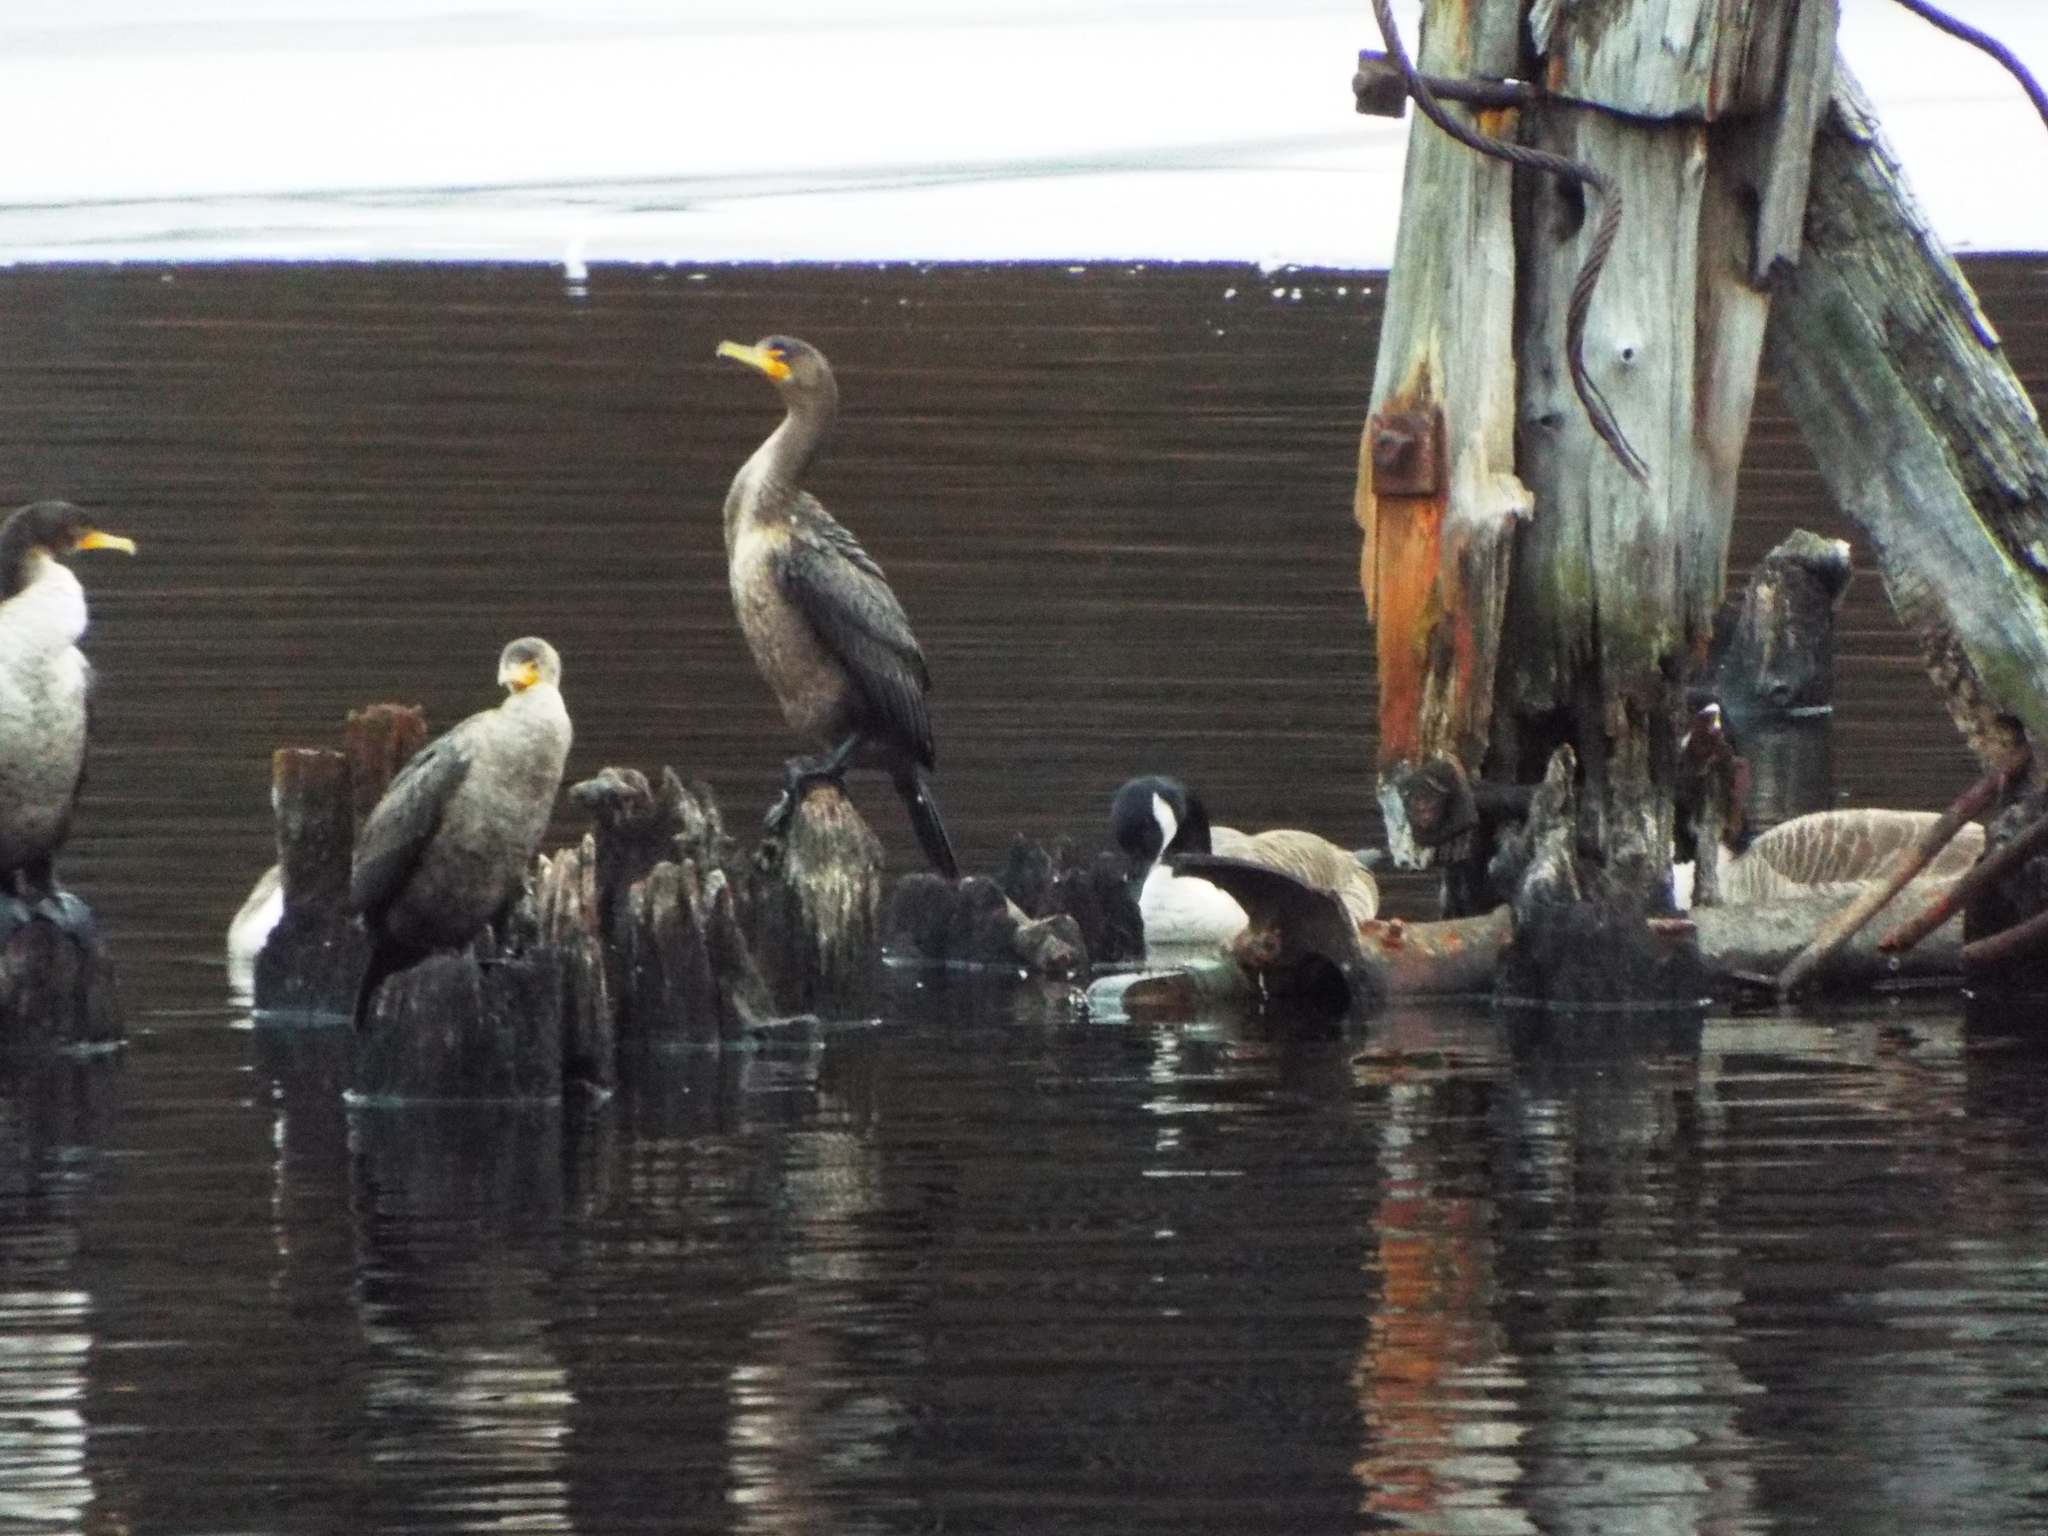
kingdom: Animalia
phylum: Chordata
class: Aves
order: Suliformes
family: Phalacrocoracidae
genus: Phalacrocorax
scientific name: Phalacrocorax auritus
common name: Double-crested cormorant
